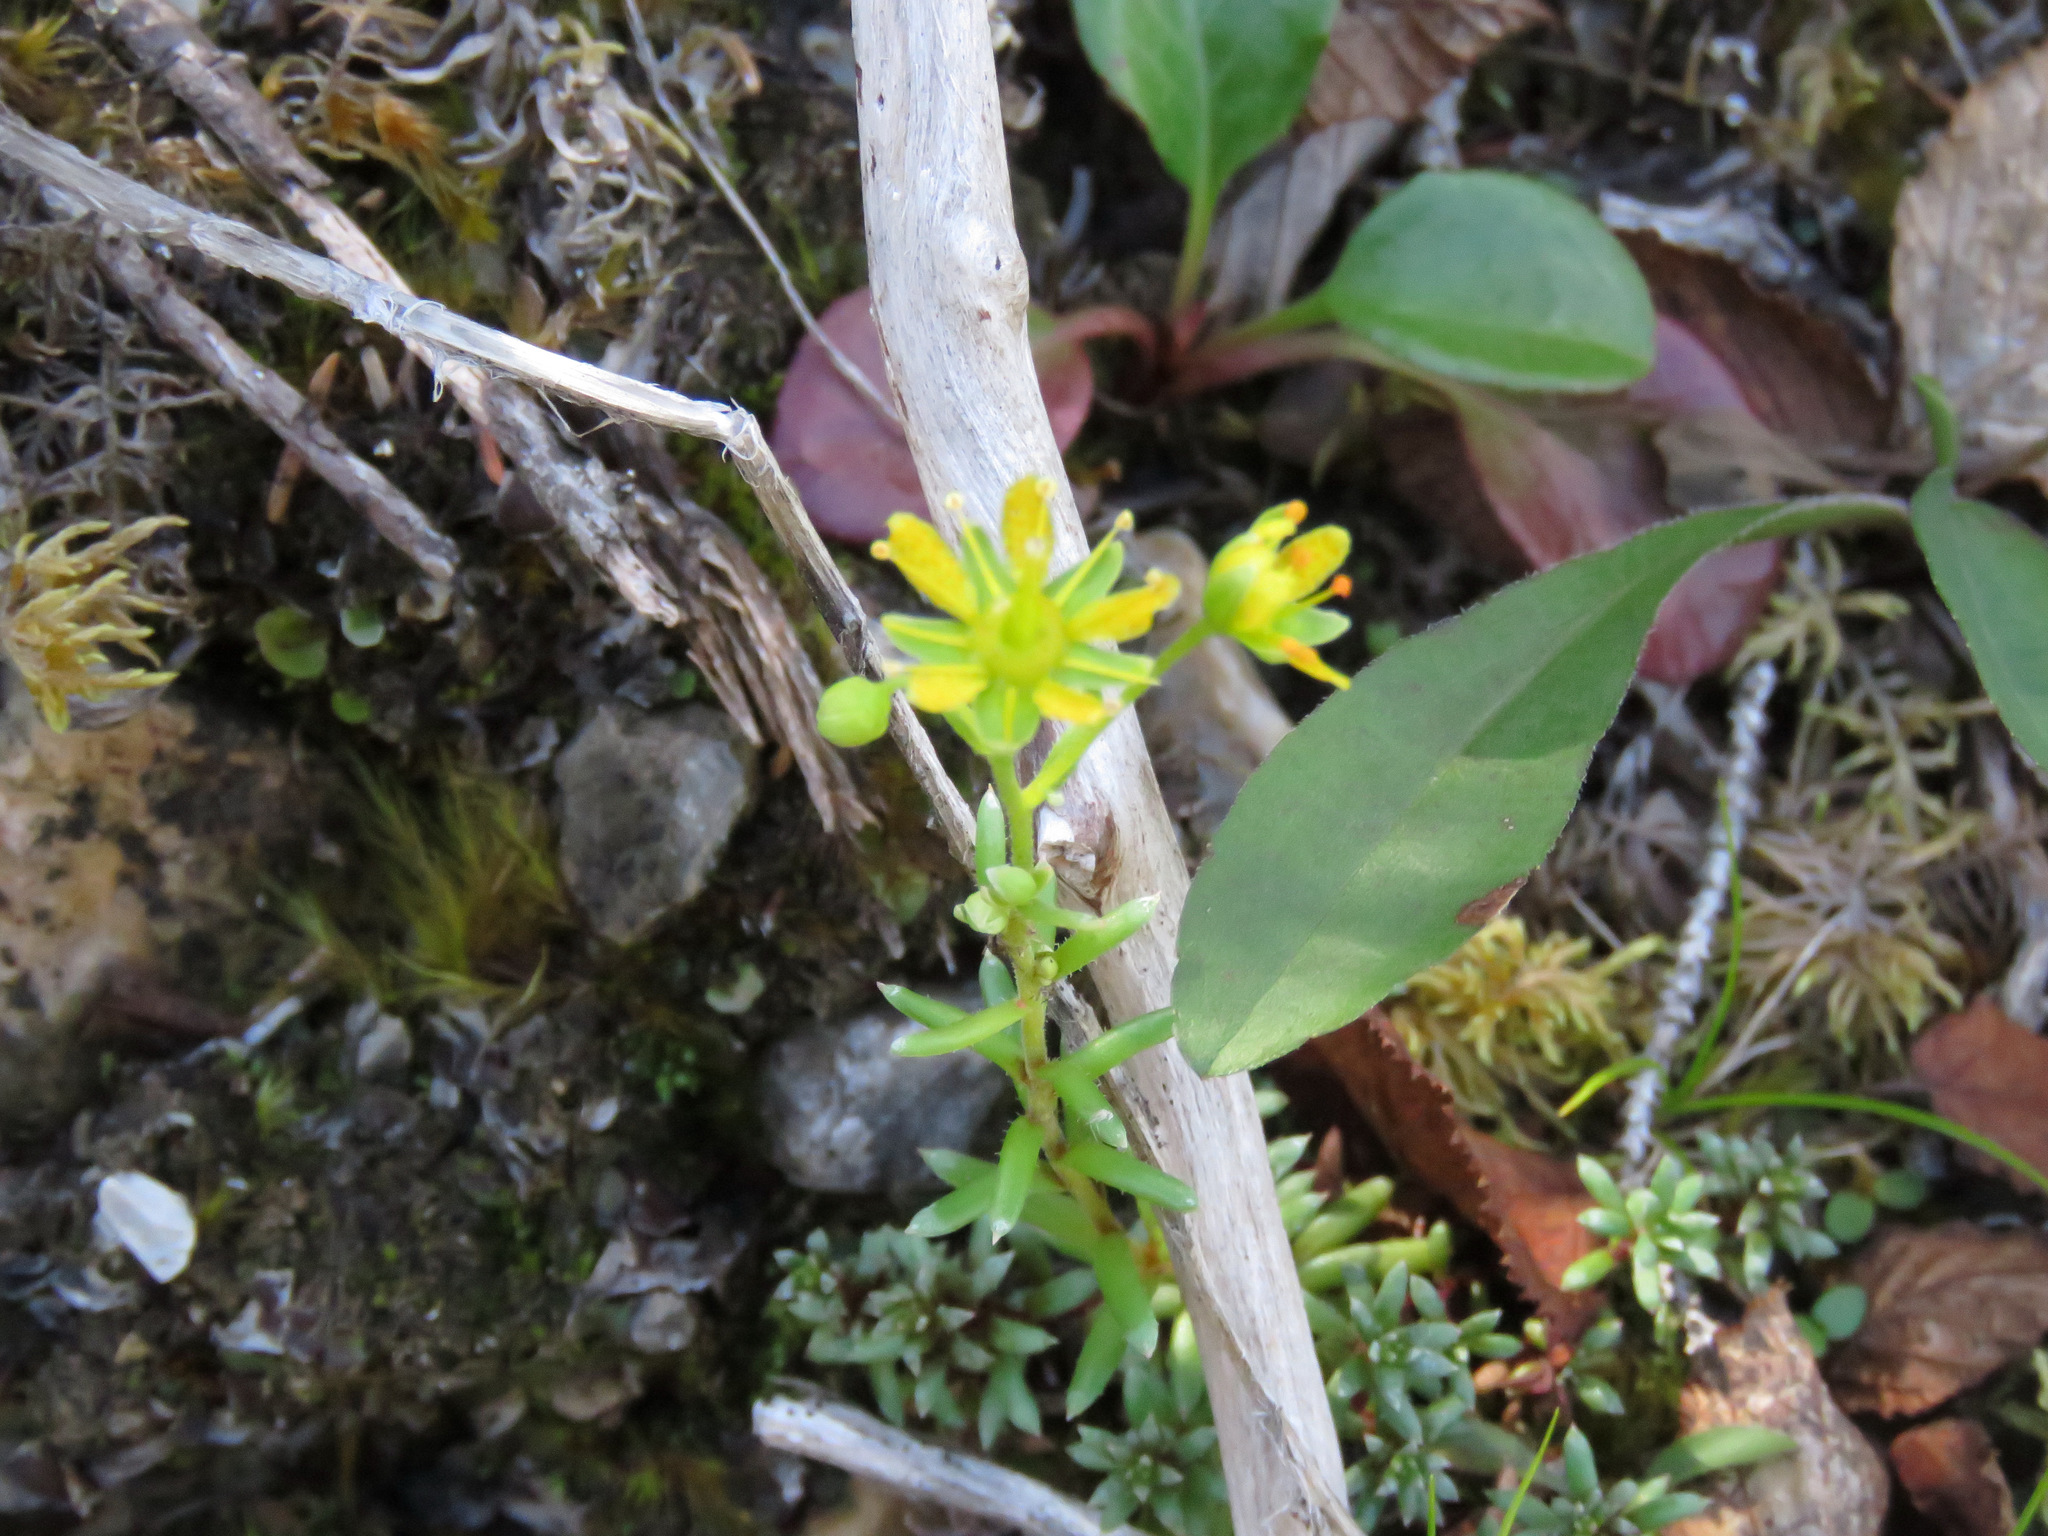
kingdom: Plantae
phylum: Tracheophyta
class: Magnoliopsida
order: Saxifragales
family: Saxifragaceae
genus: Saxifraga
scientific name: Saxifraga aizoides
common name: Yellow mountain saxifrage
